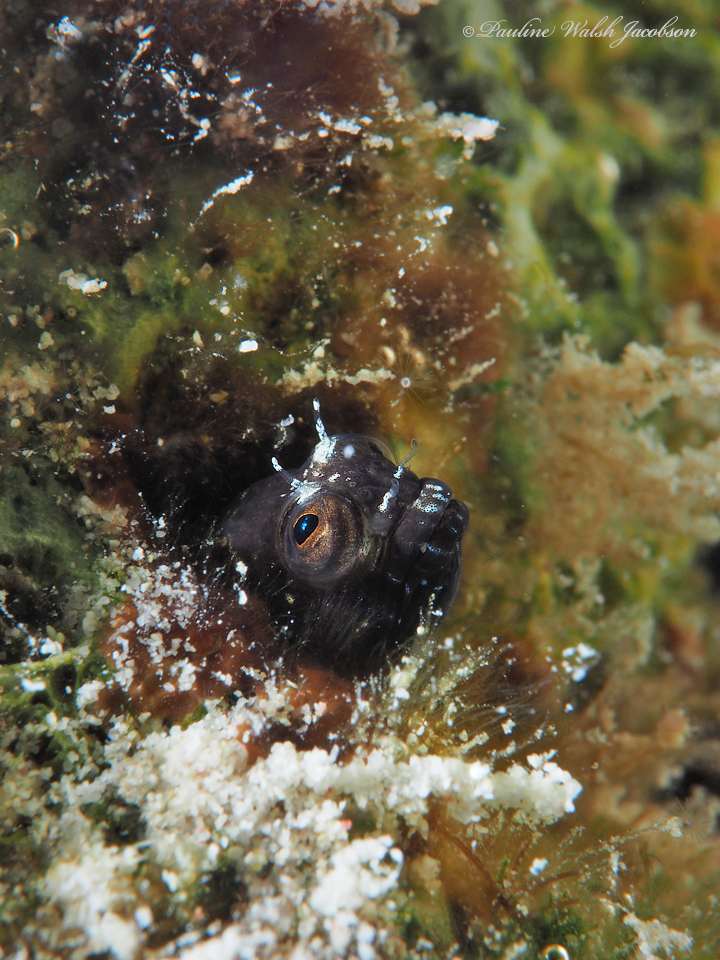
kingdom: Animalia
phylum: Chordata
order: Perciformes
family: Chaenopsidae
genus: Emblemaria
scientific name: Emblemaria pandionis
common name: Sailfin blenny
